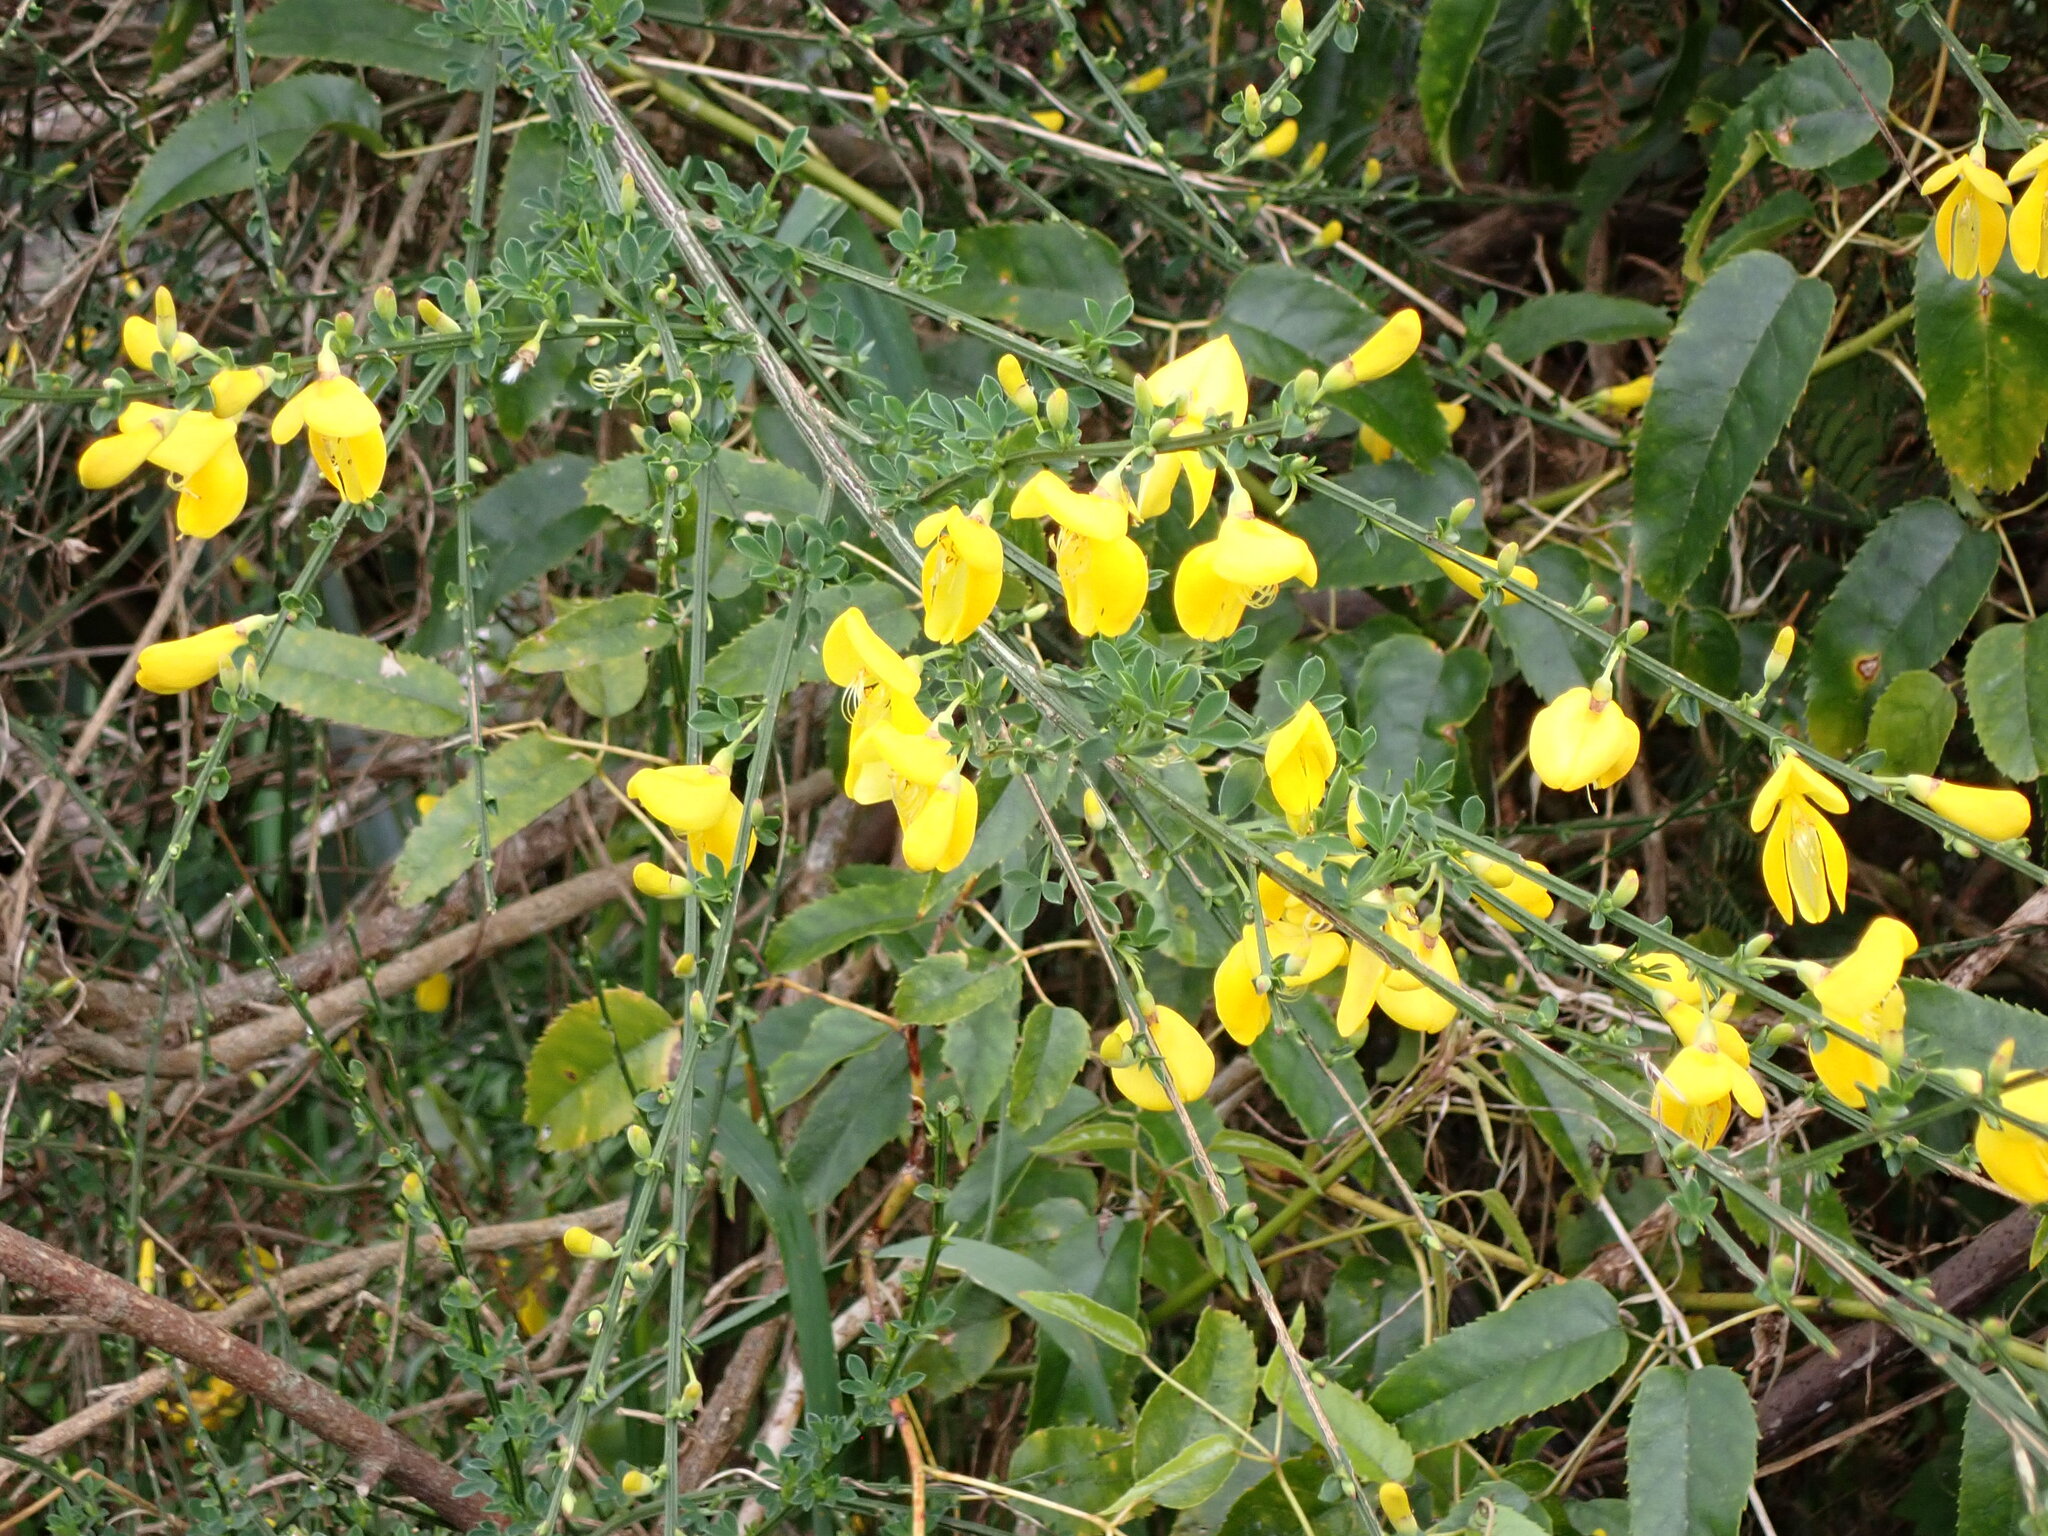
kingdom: Plantae
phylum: Tracheophyta
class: Magnoliopsida
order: Fabales
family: Fabaceae
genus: Cytisus
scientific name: Cytisus scoparius
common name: Scotch broom
